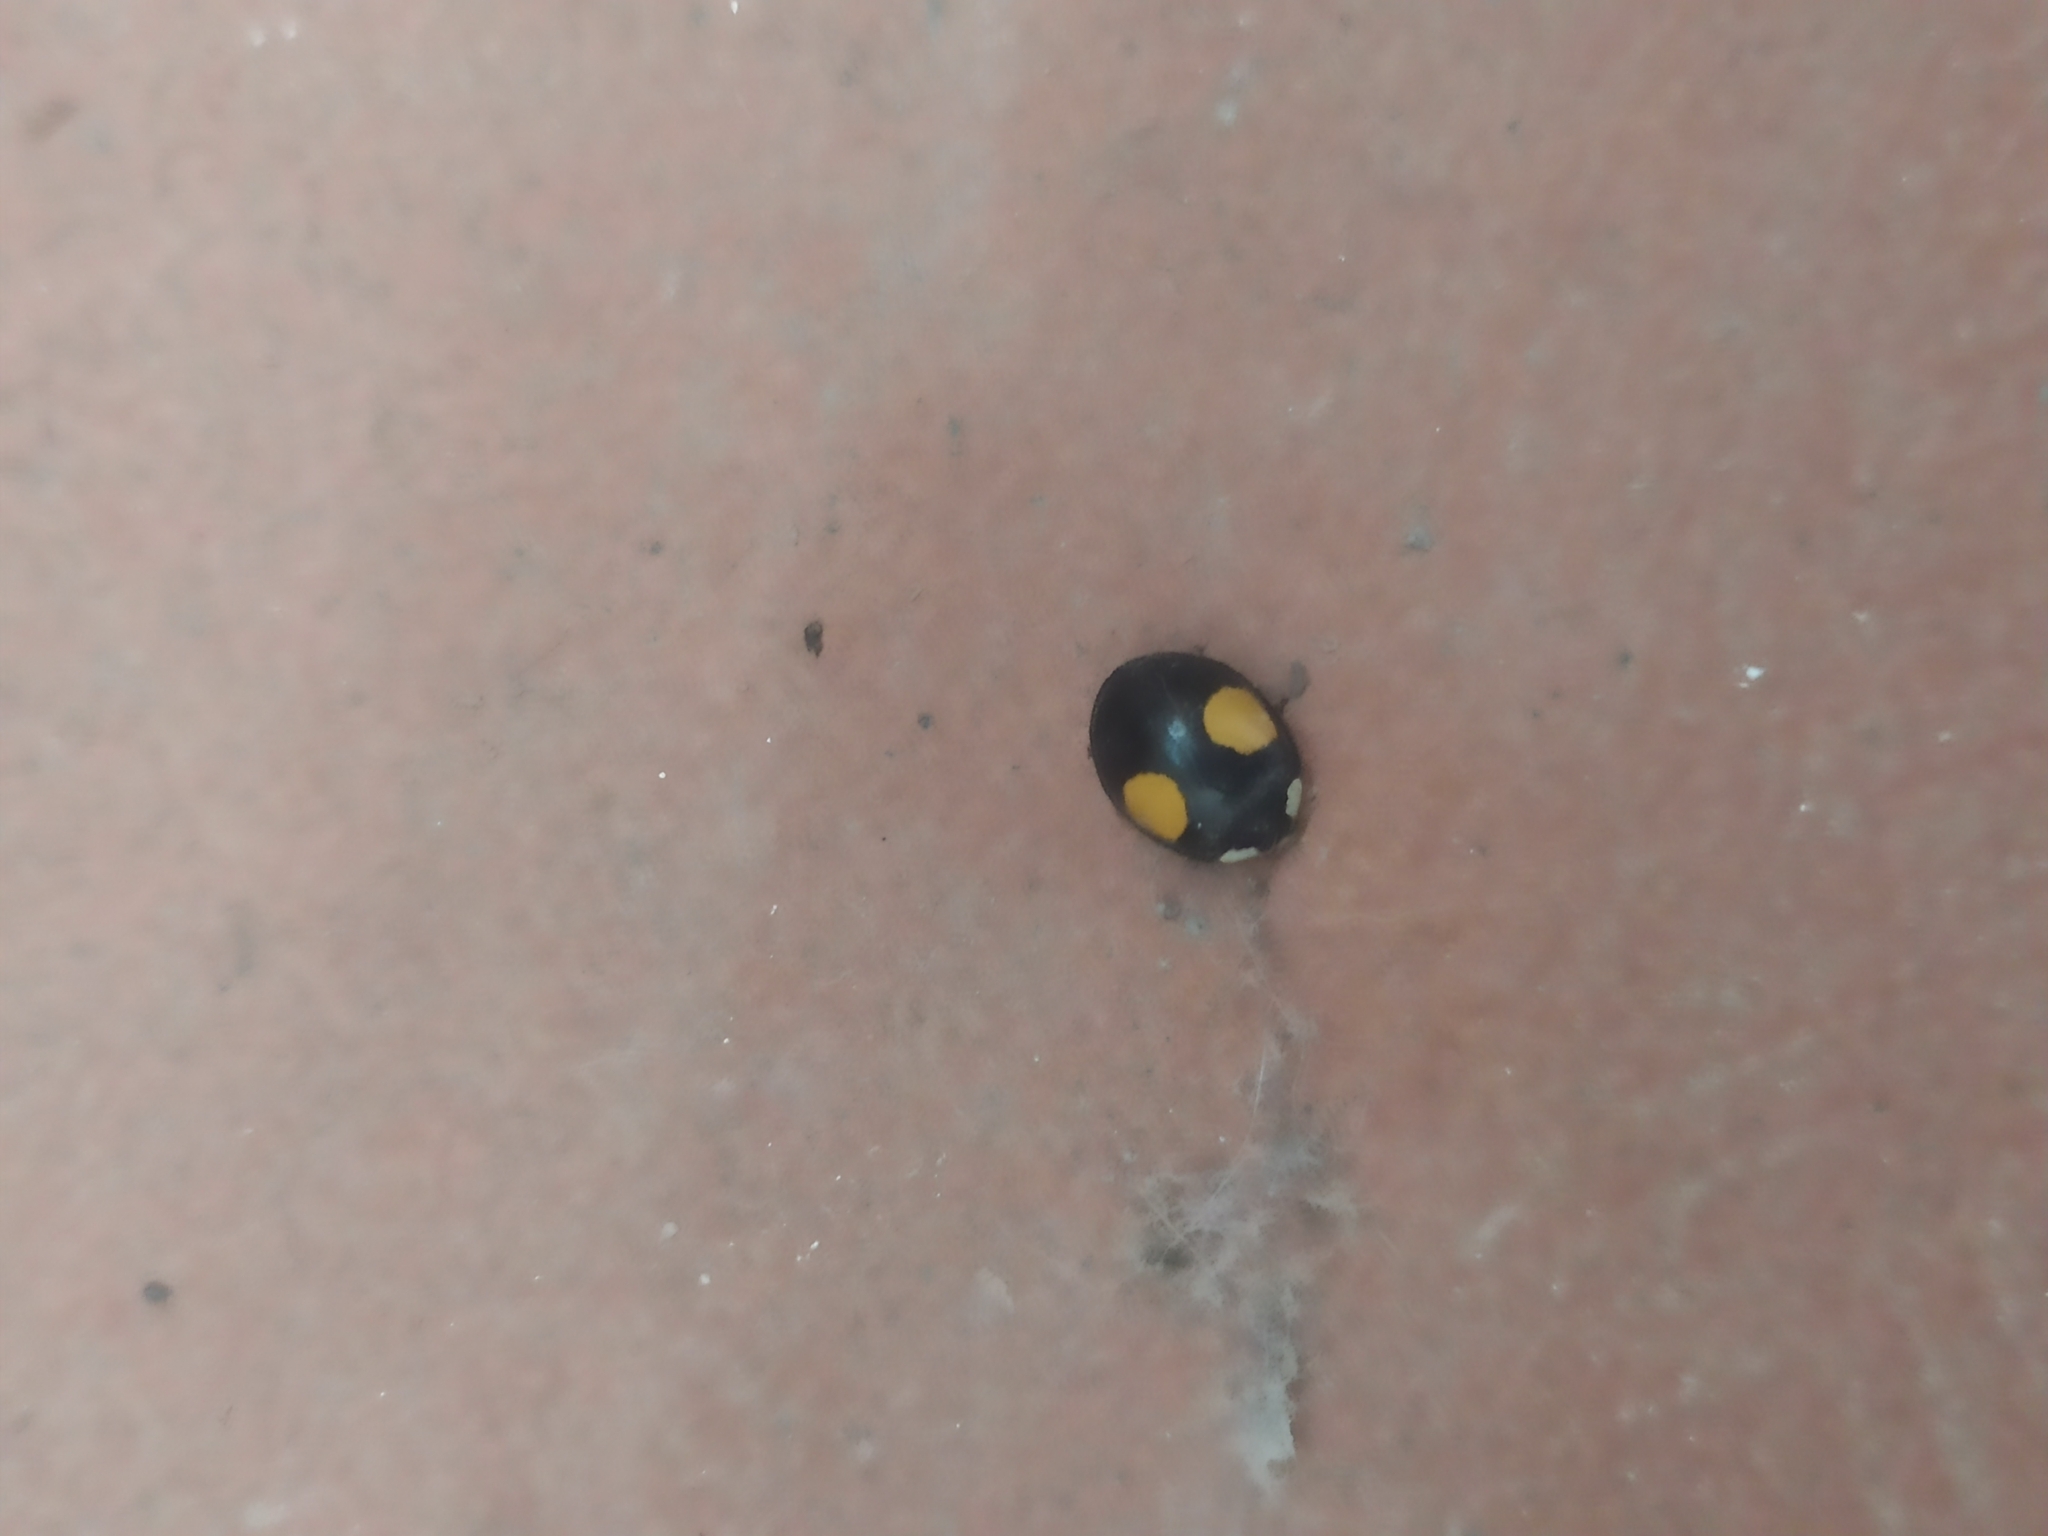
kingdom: Animalia
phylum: Arthropoda
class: Insecta
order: Coleoptera
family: Coccinellidae
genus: Harmonia
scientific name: Harmonia axyridis
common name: Harlequin ladybird
